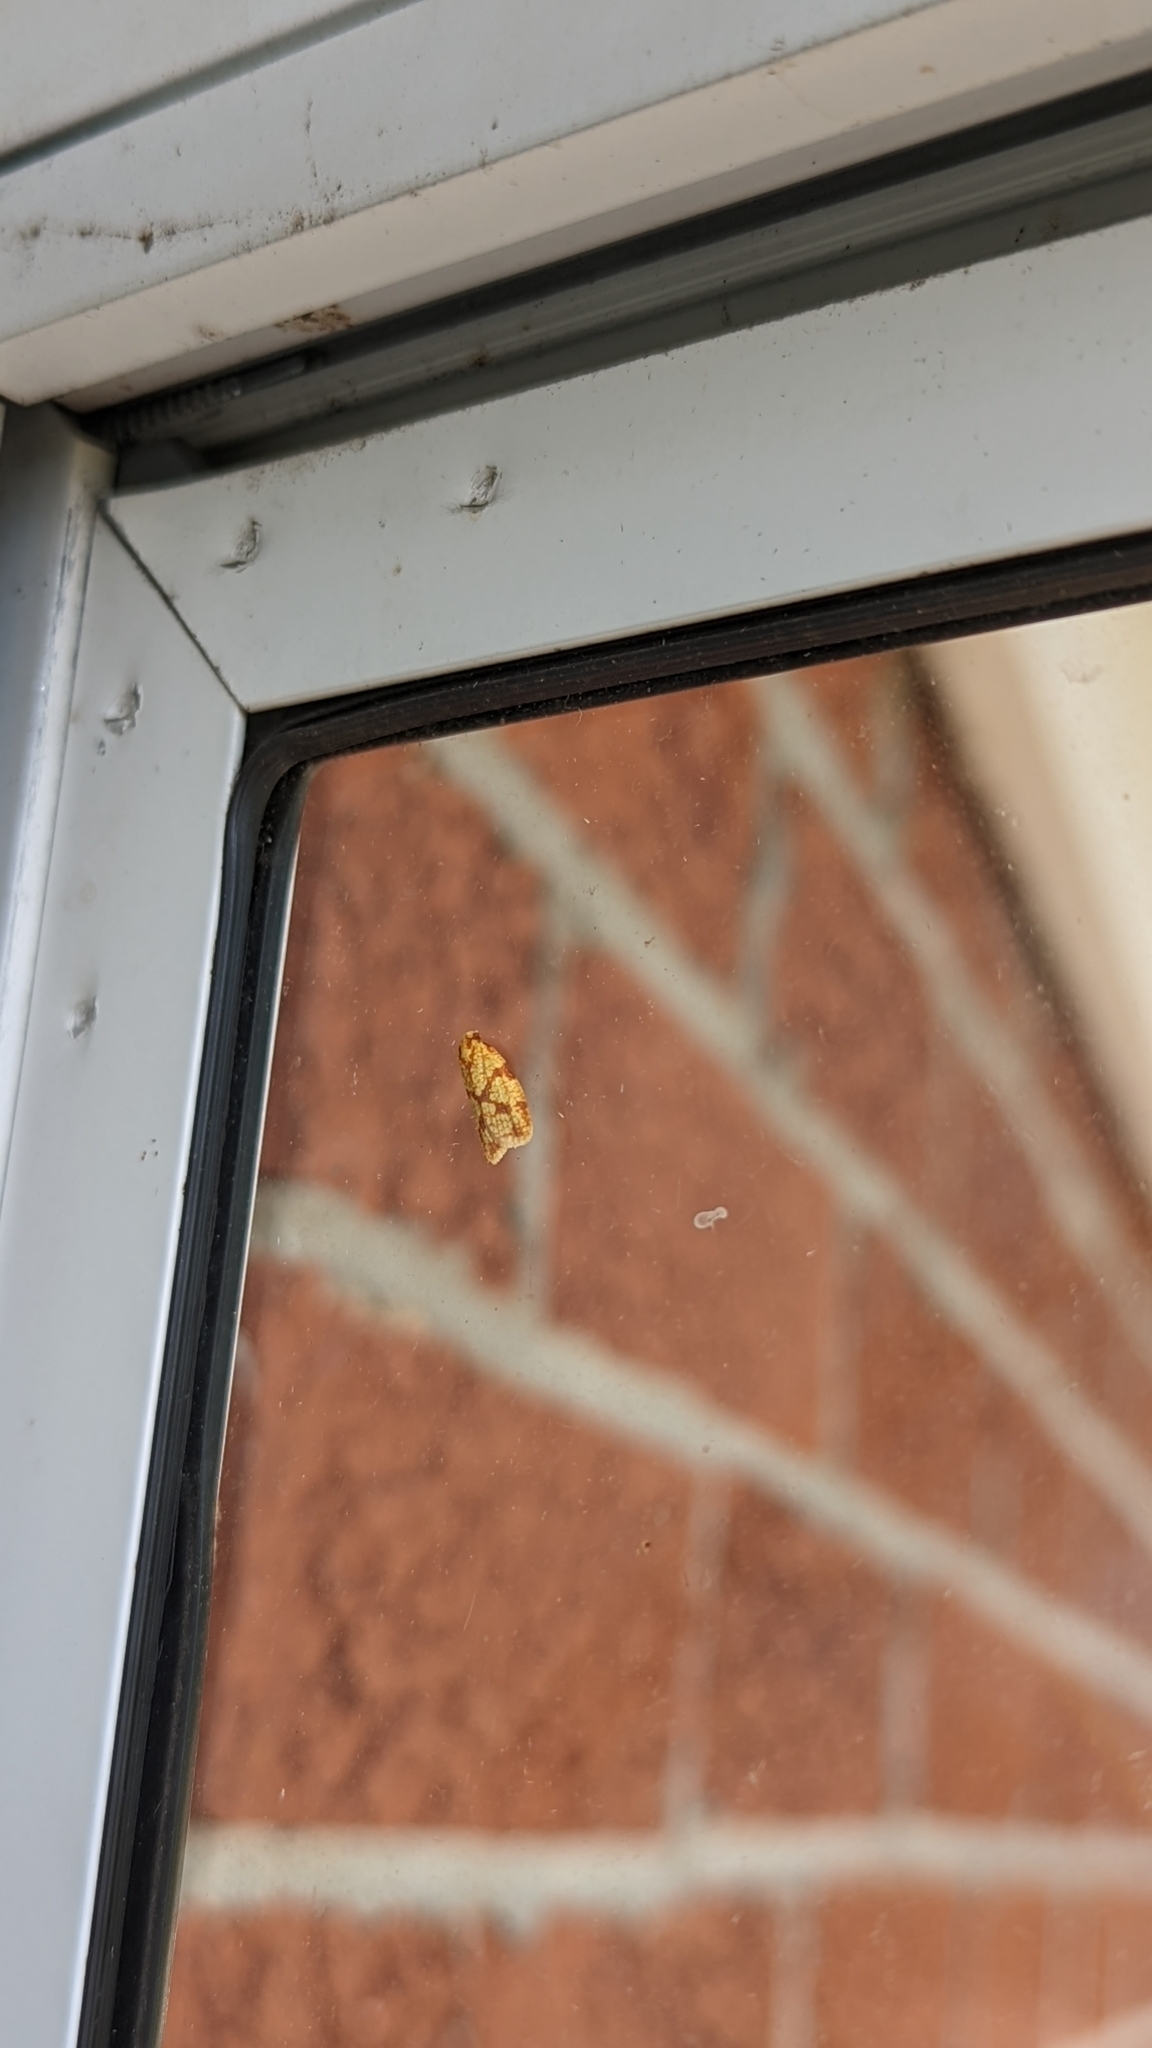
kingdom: Animalia
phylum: Arthropoda
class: Insecta
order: Lepidoptera
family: Tortricidae
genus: Sparganothis
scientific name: Sparganothis sulfureana
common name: Sparganothis fruitworm moth
